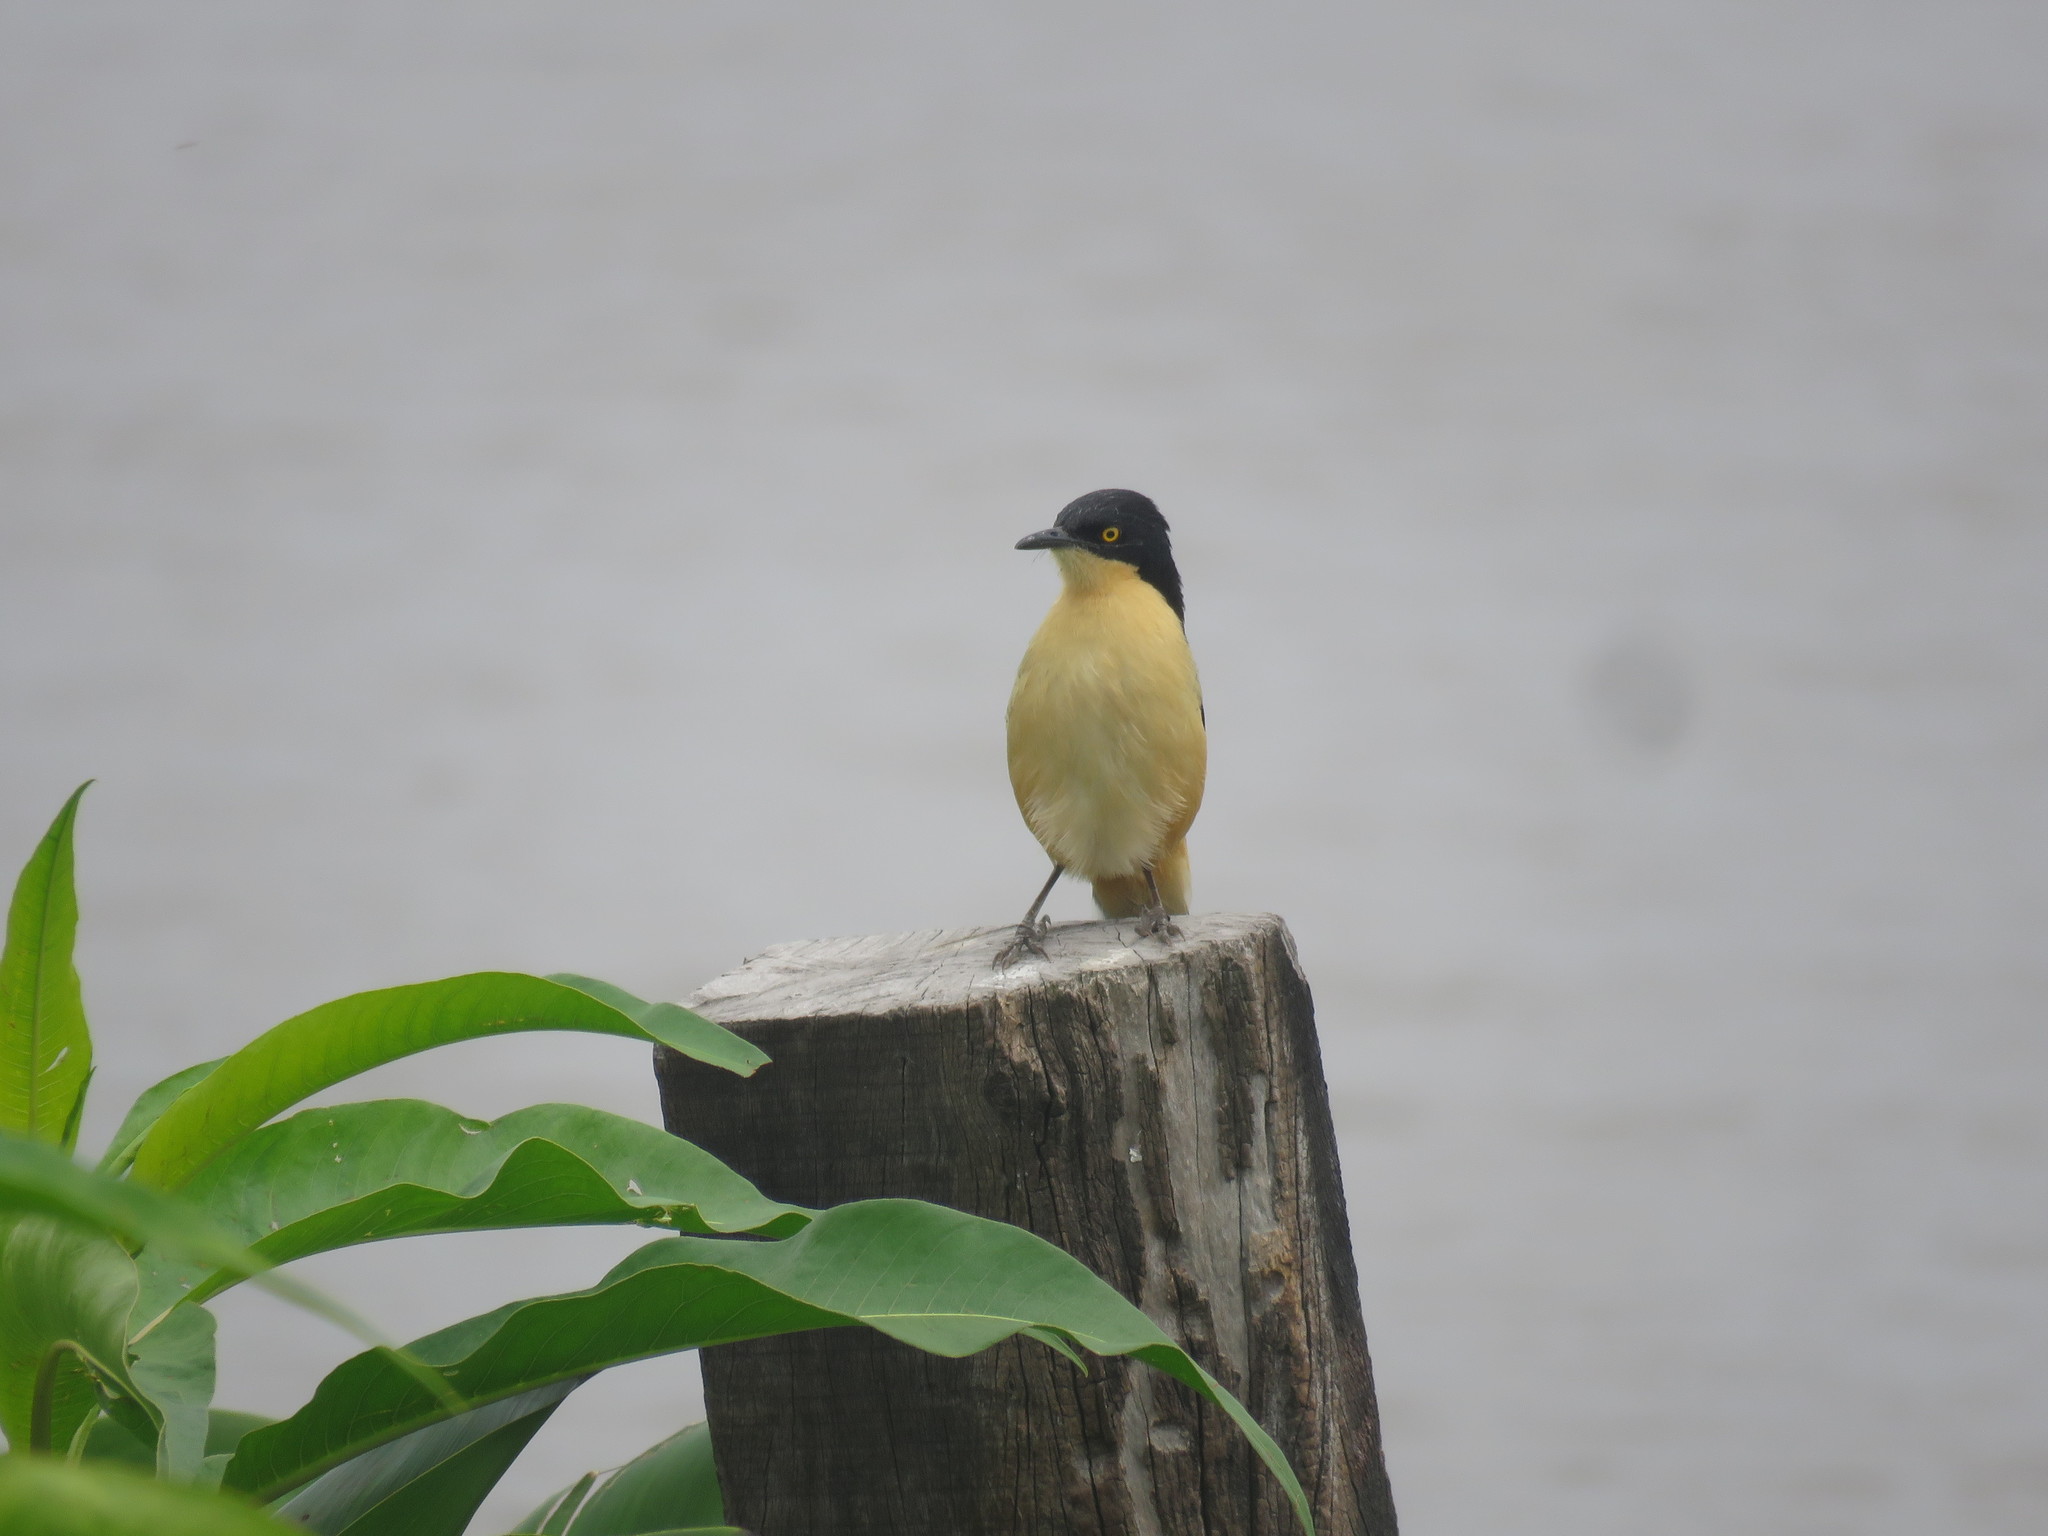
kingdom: Animalia
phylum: Chordata
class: Aves
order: Passeriformes
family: Donacobiidae
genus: Donacobius
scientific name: Donacobius atricapilla
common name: Black-capped donacobius
